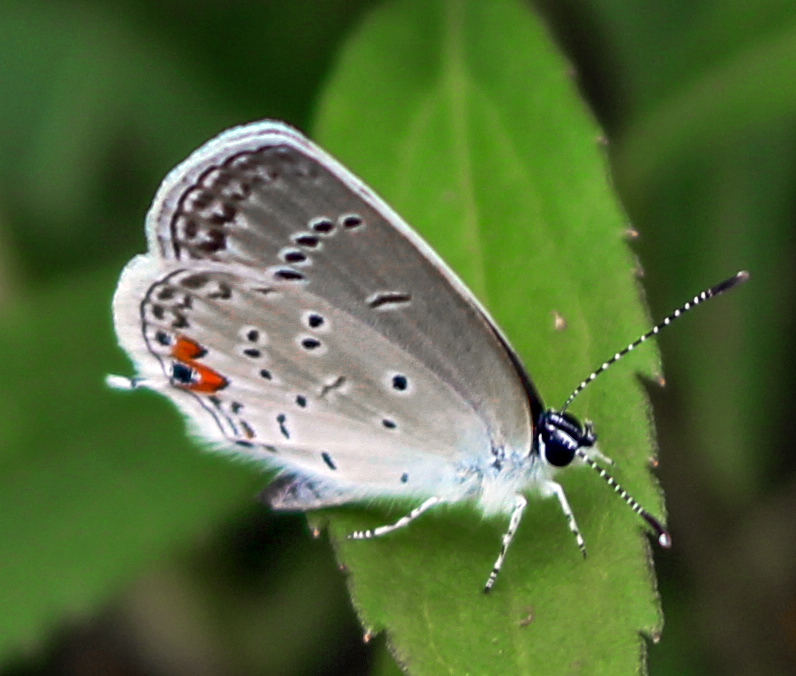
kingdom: Animalia
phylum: Arthropoda
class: Insecta
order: Lepidoptera
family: Lycaenidae
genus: Elkalyce
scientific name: Elkalyce comyntas
